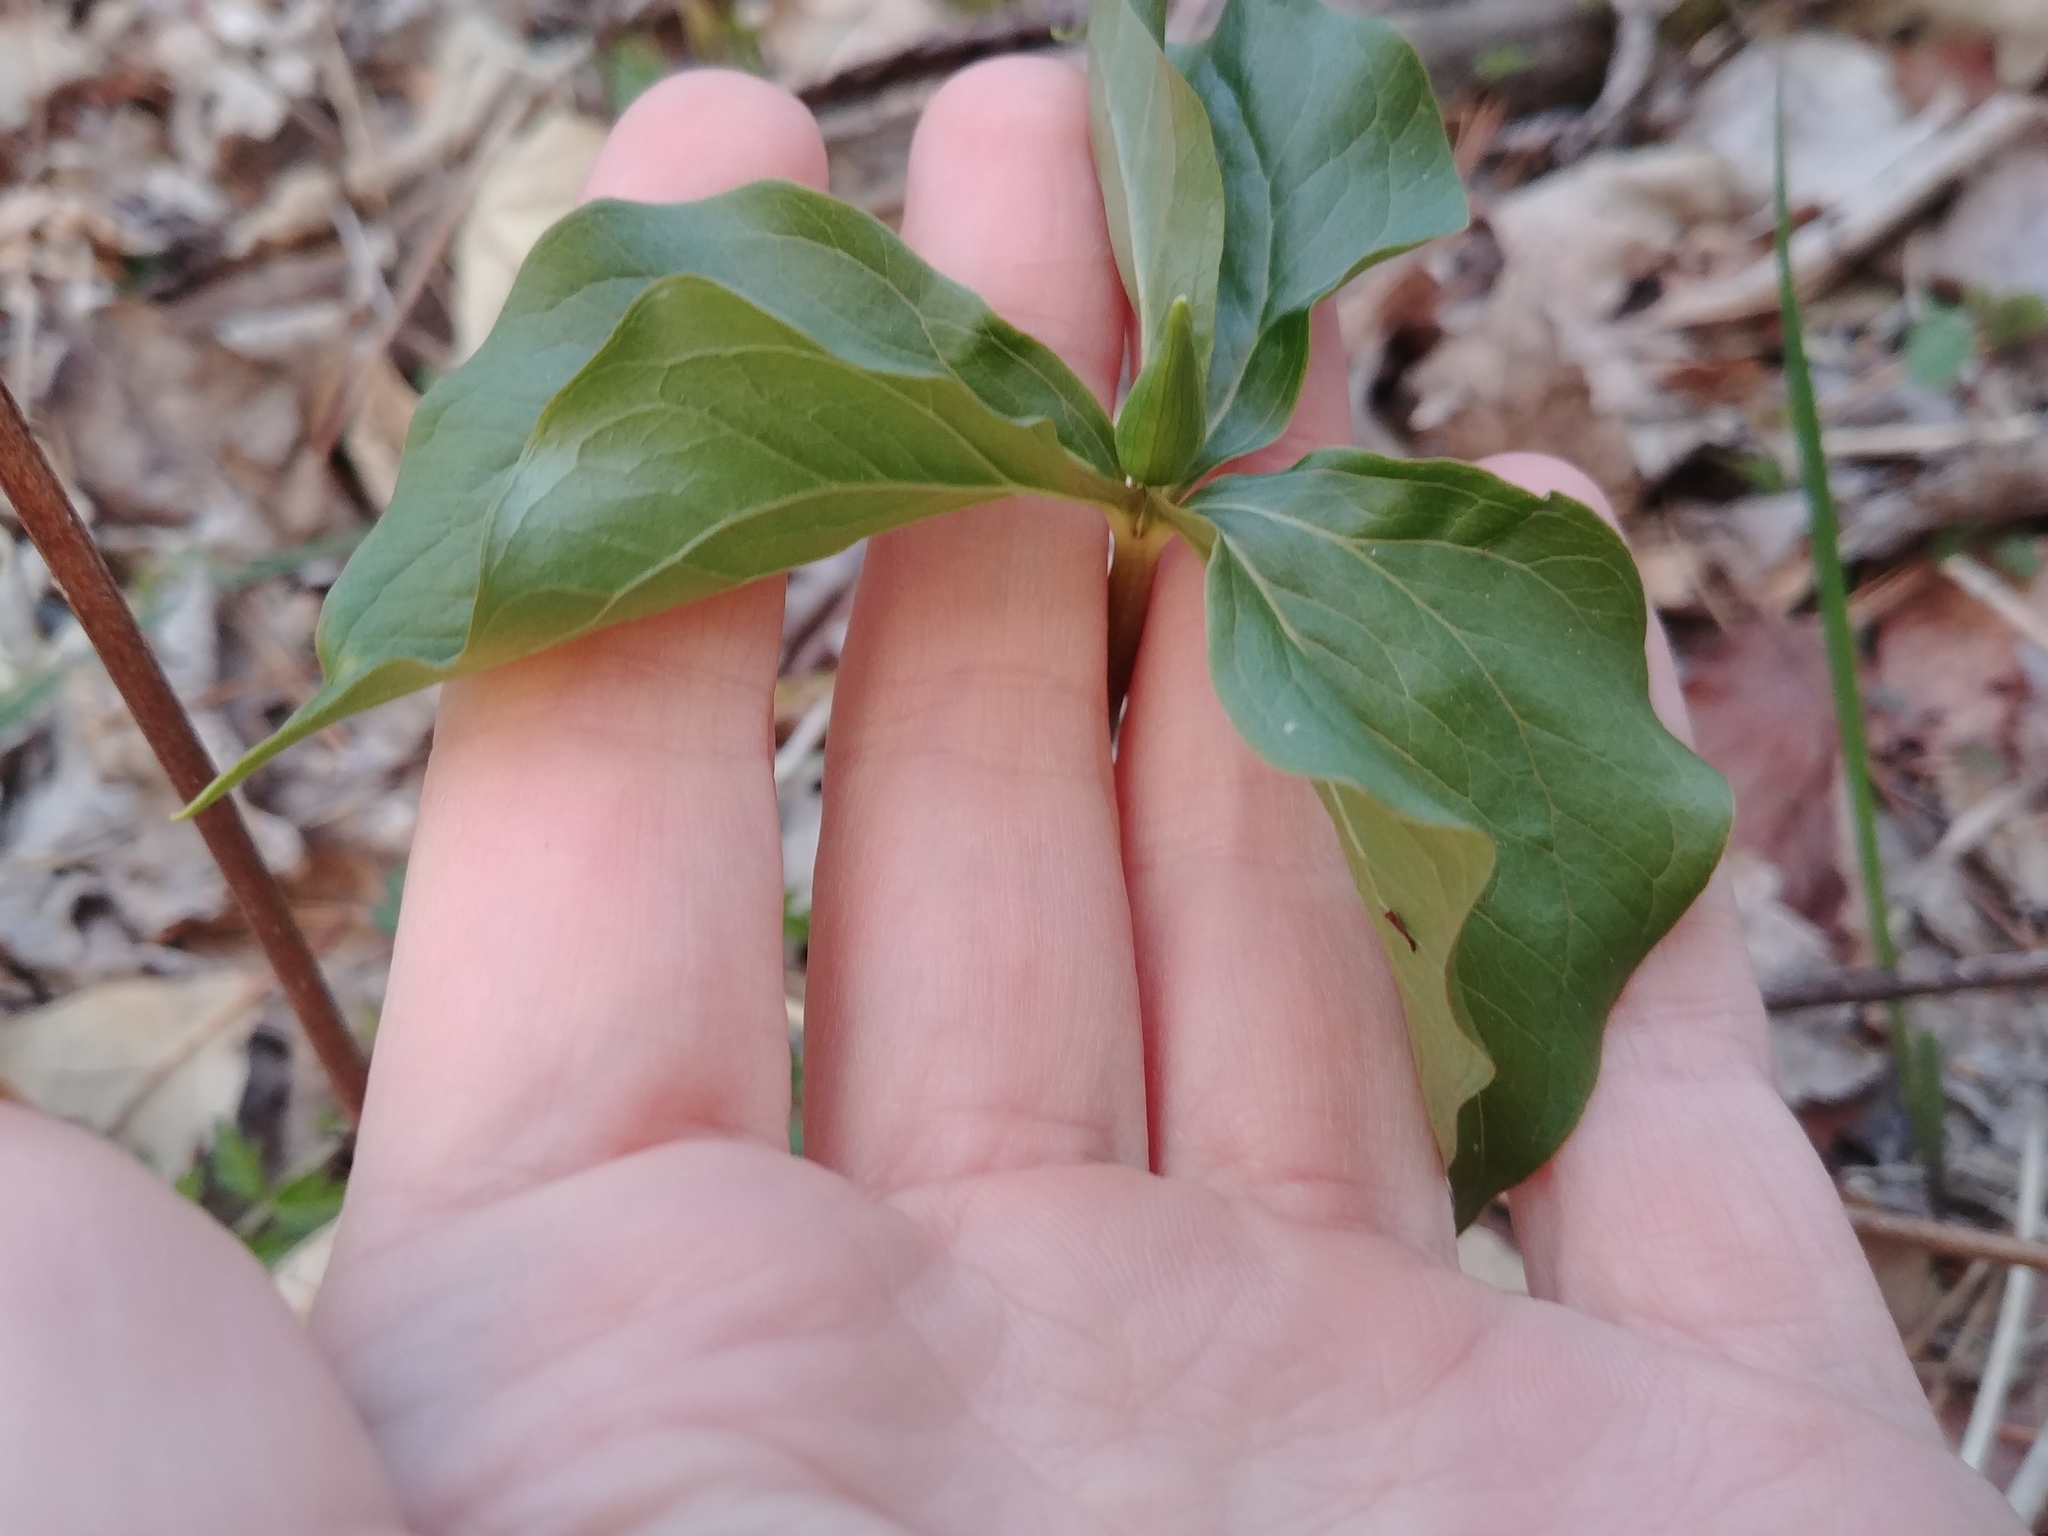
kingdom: Plantae
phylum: Tracheophyta
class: Liliopsida
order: Liliales
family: Melanthiaceae
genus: Trillium
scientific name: Trillium cernuum
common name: Nodding trillium
